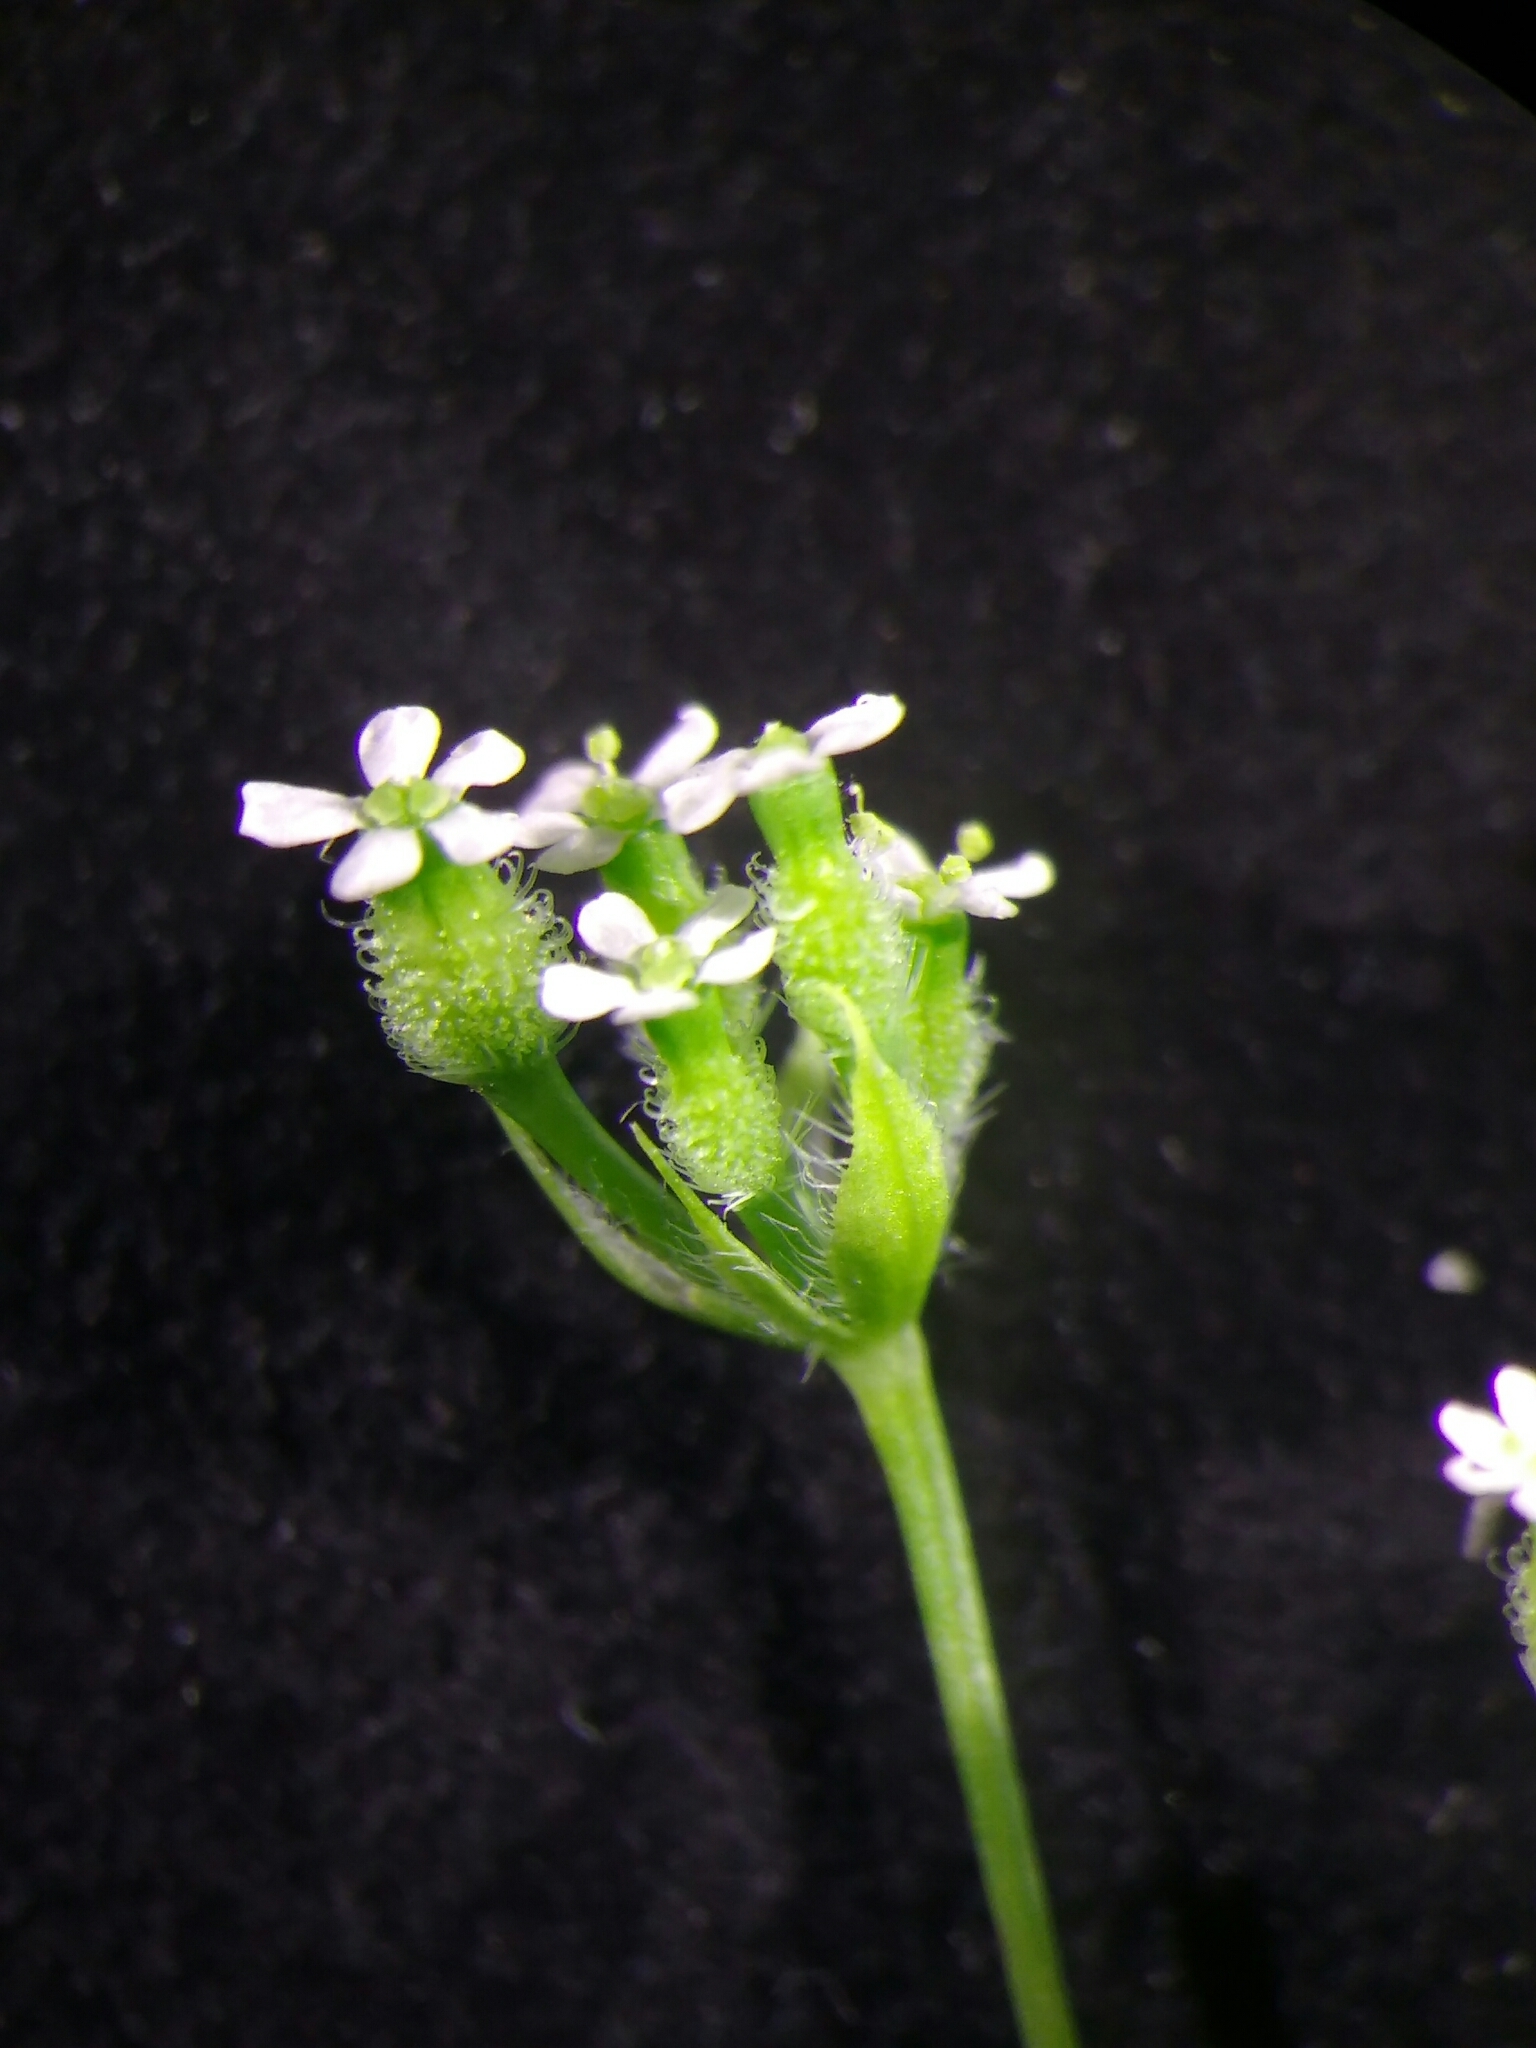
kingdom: Plantae
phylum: Tracheophyta
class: Magnoliopsida
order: Apiales
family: Apiaceae
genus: Anthriscus
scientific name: Anthriscus caucalis
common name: Bur chervil
